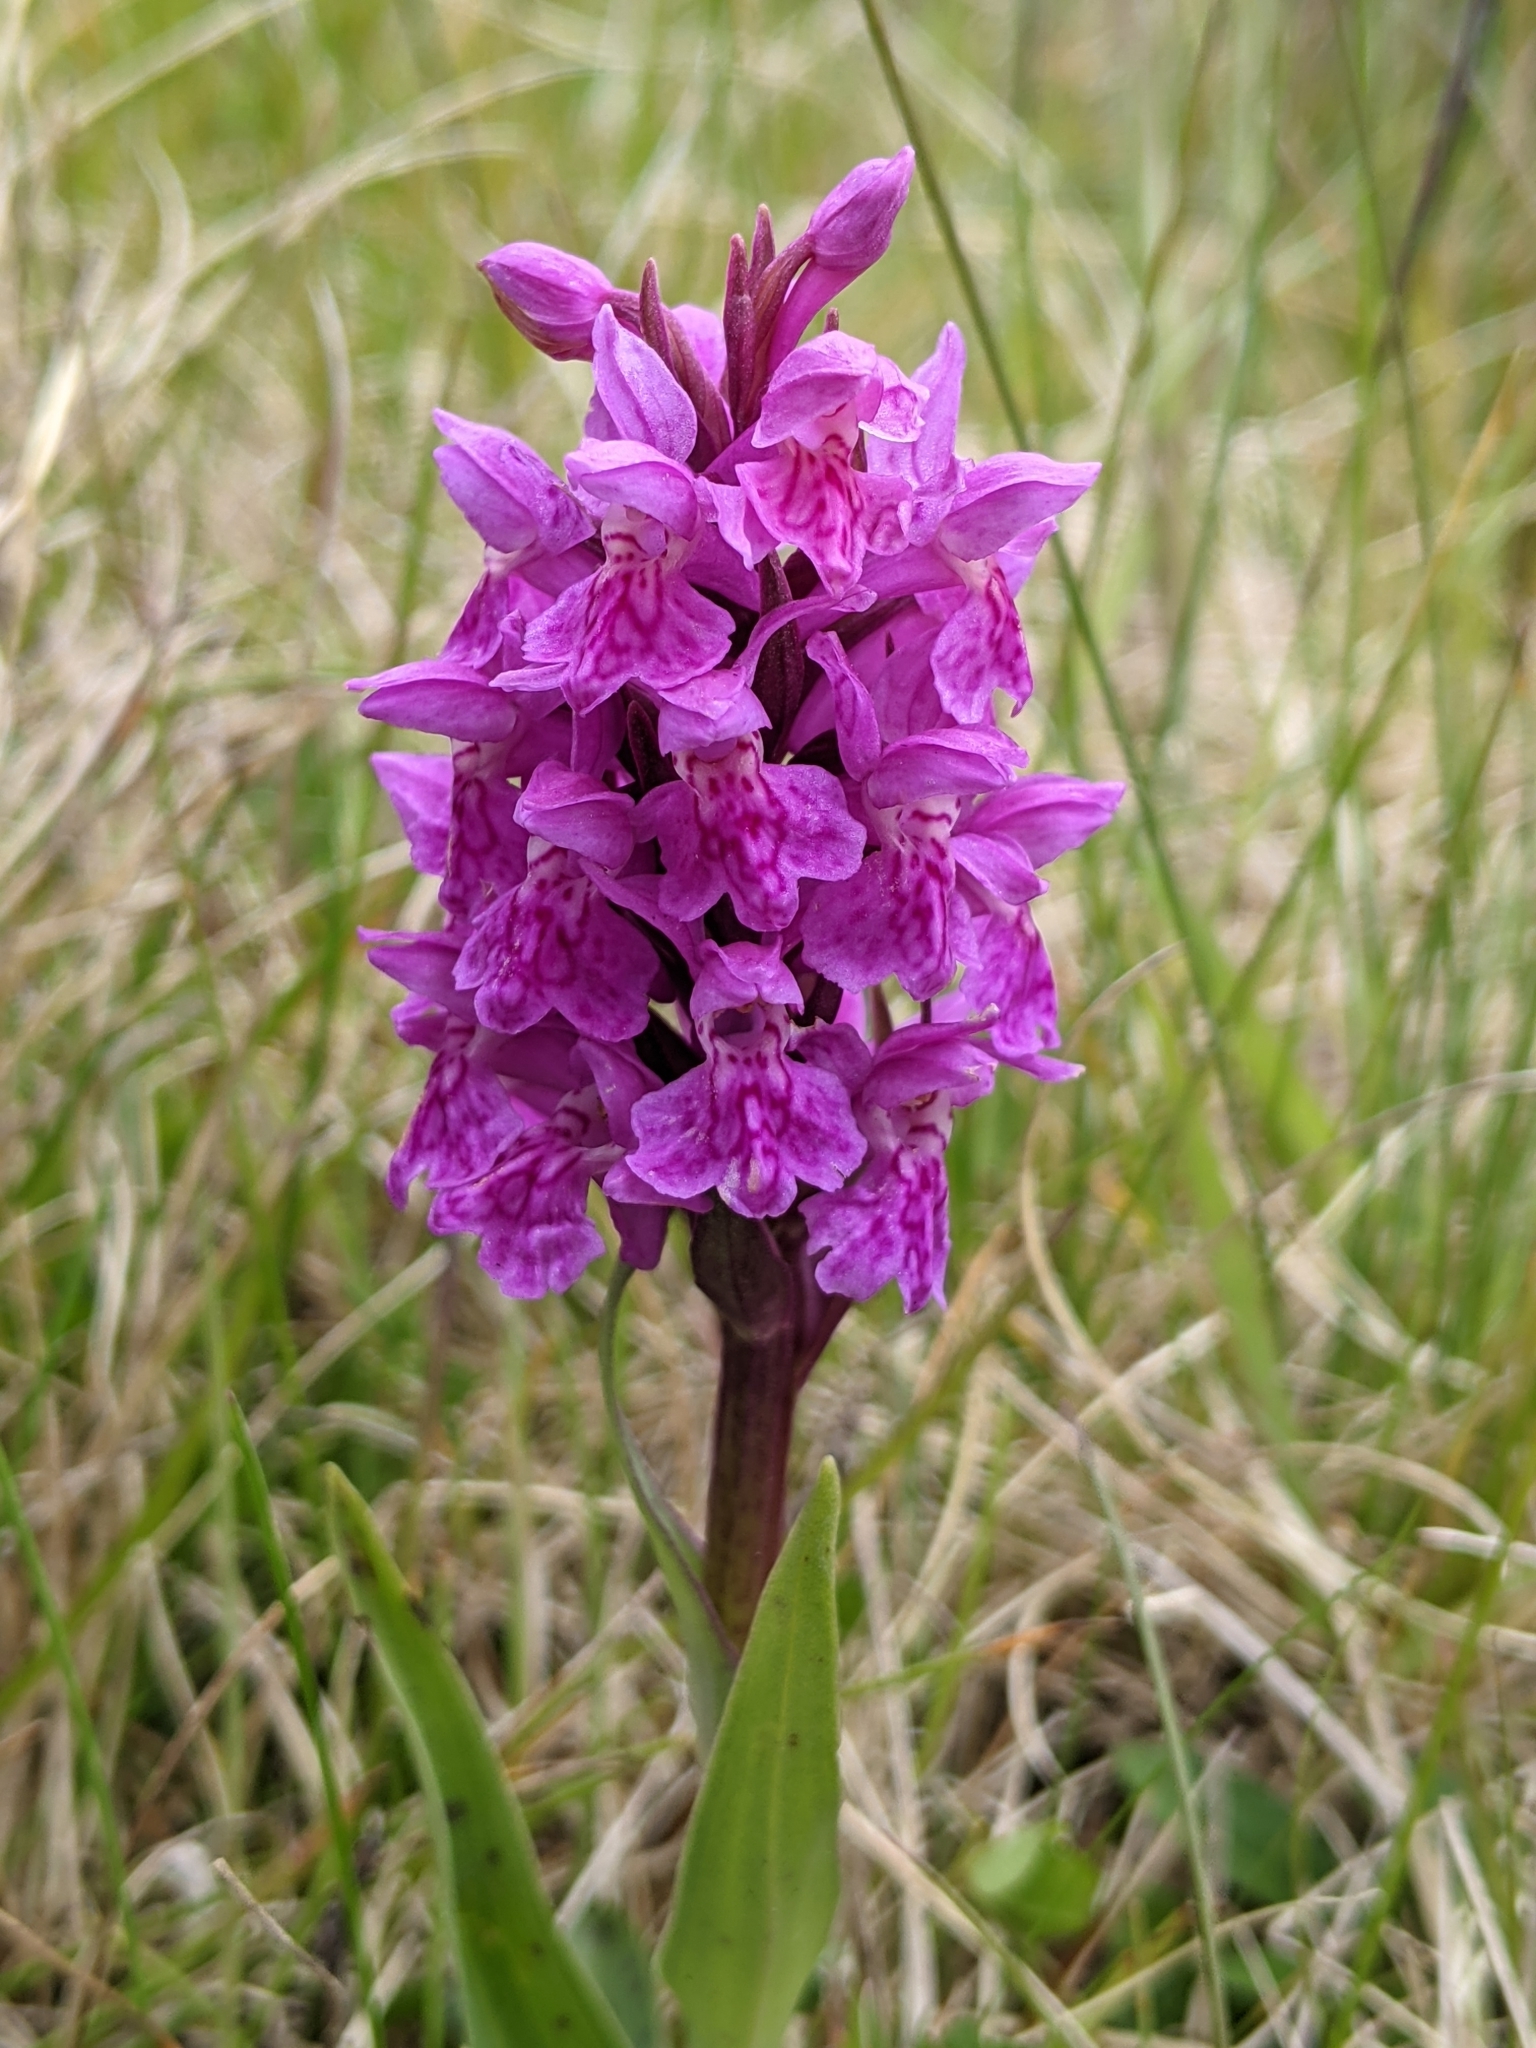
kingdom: Plantae
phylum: Tracheophyta
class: Liliopsida
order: Asparagales
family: Orchidaceae
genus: Dactylorhiza
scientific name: Dactylorhiza majalis
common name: Marsh orchid
